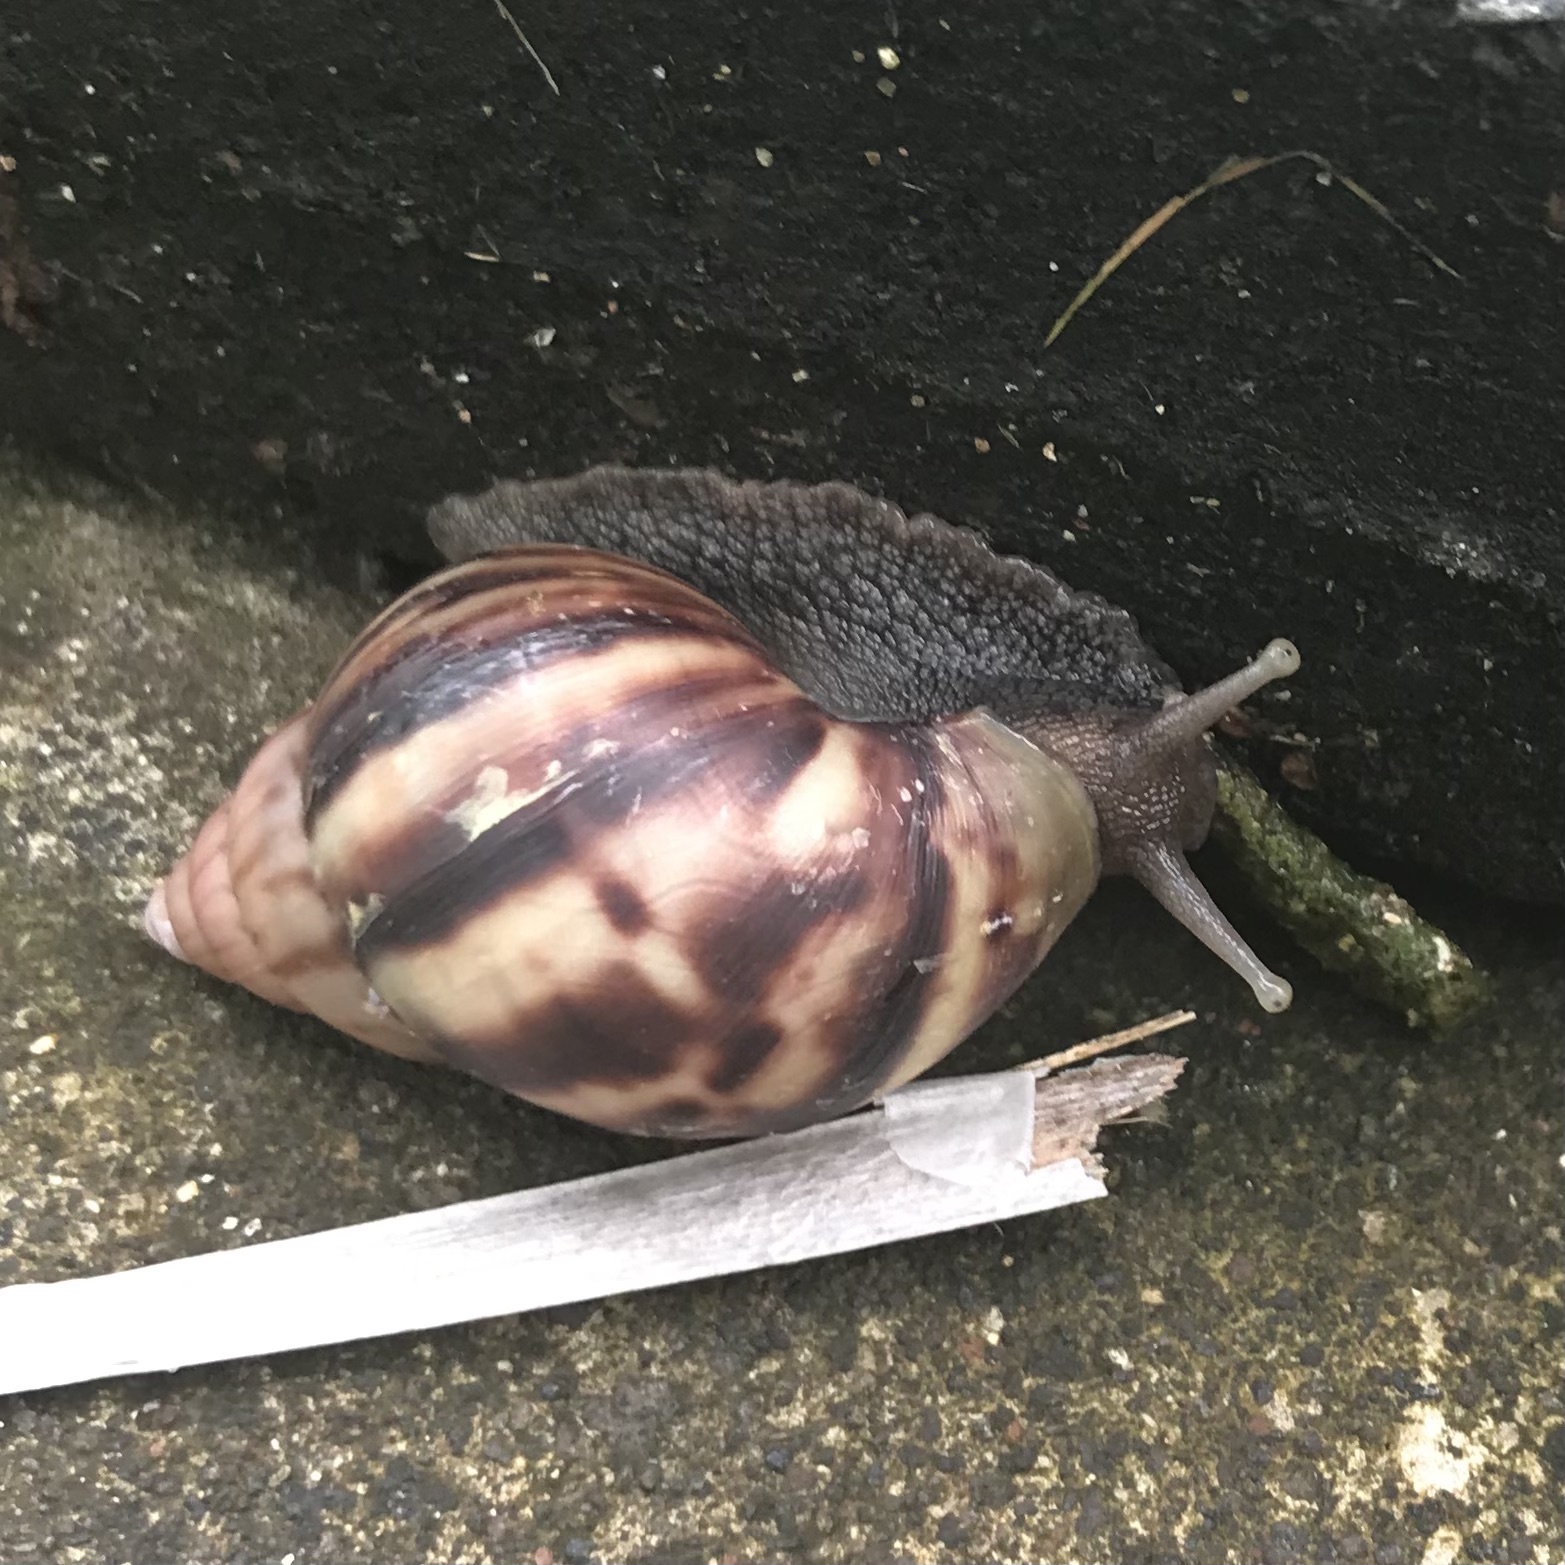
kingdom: Animalia
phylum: Mollusca
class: Gastropoda
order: Stylommatophora
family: Achatinidae
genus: Lissachatina
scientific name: Lissachatina fulica
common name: Giant african snail
